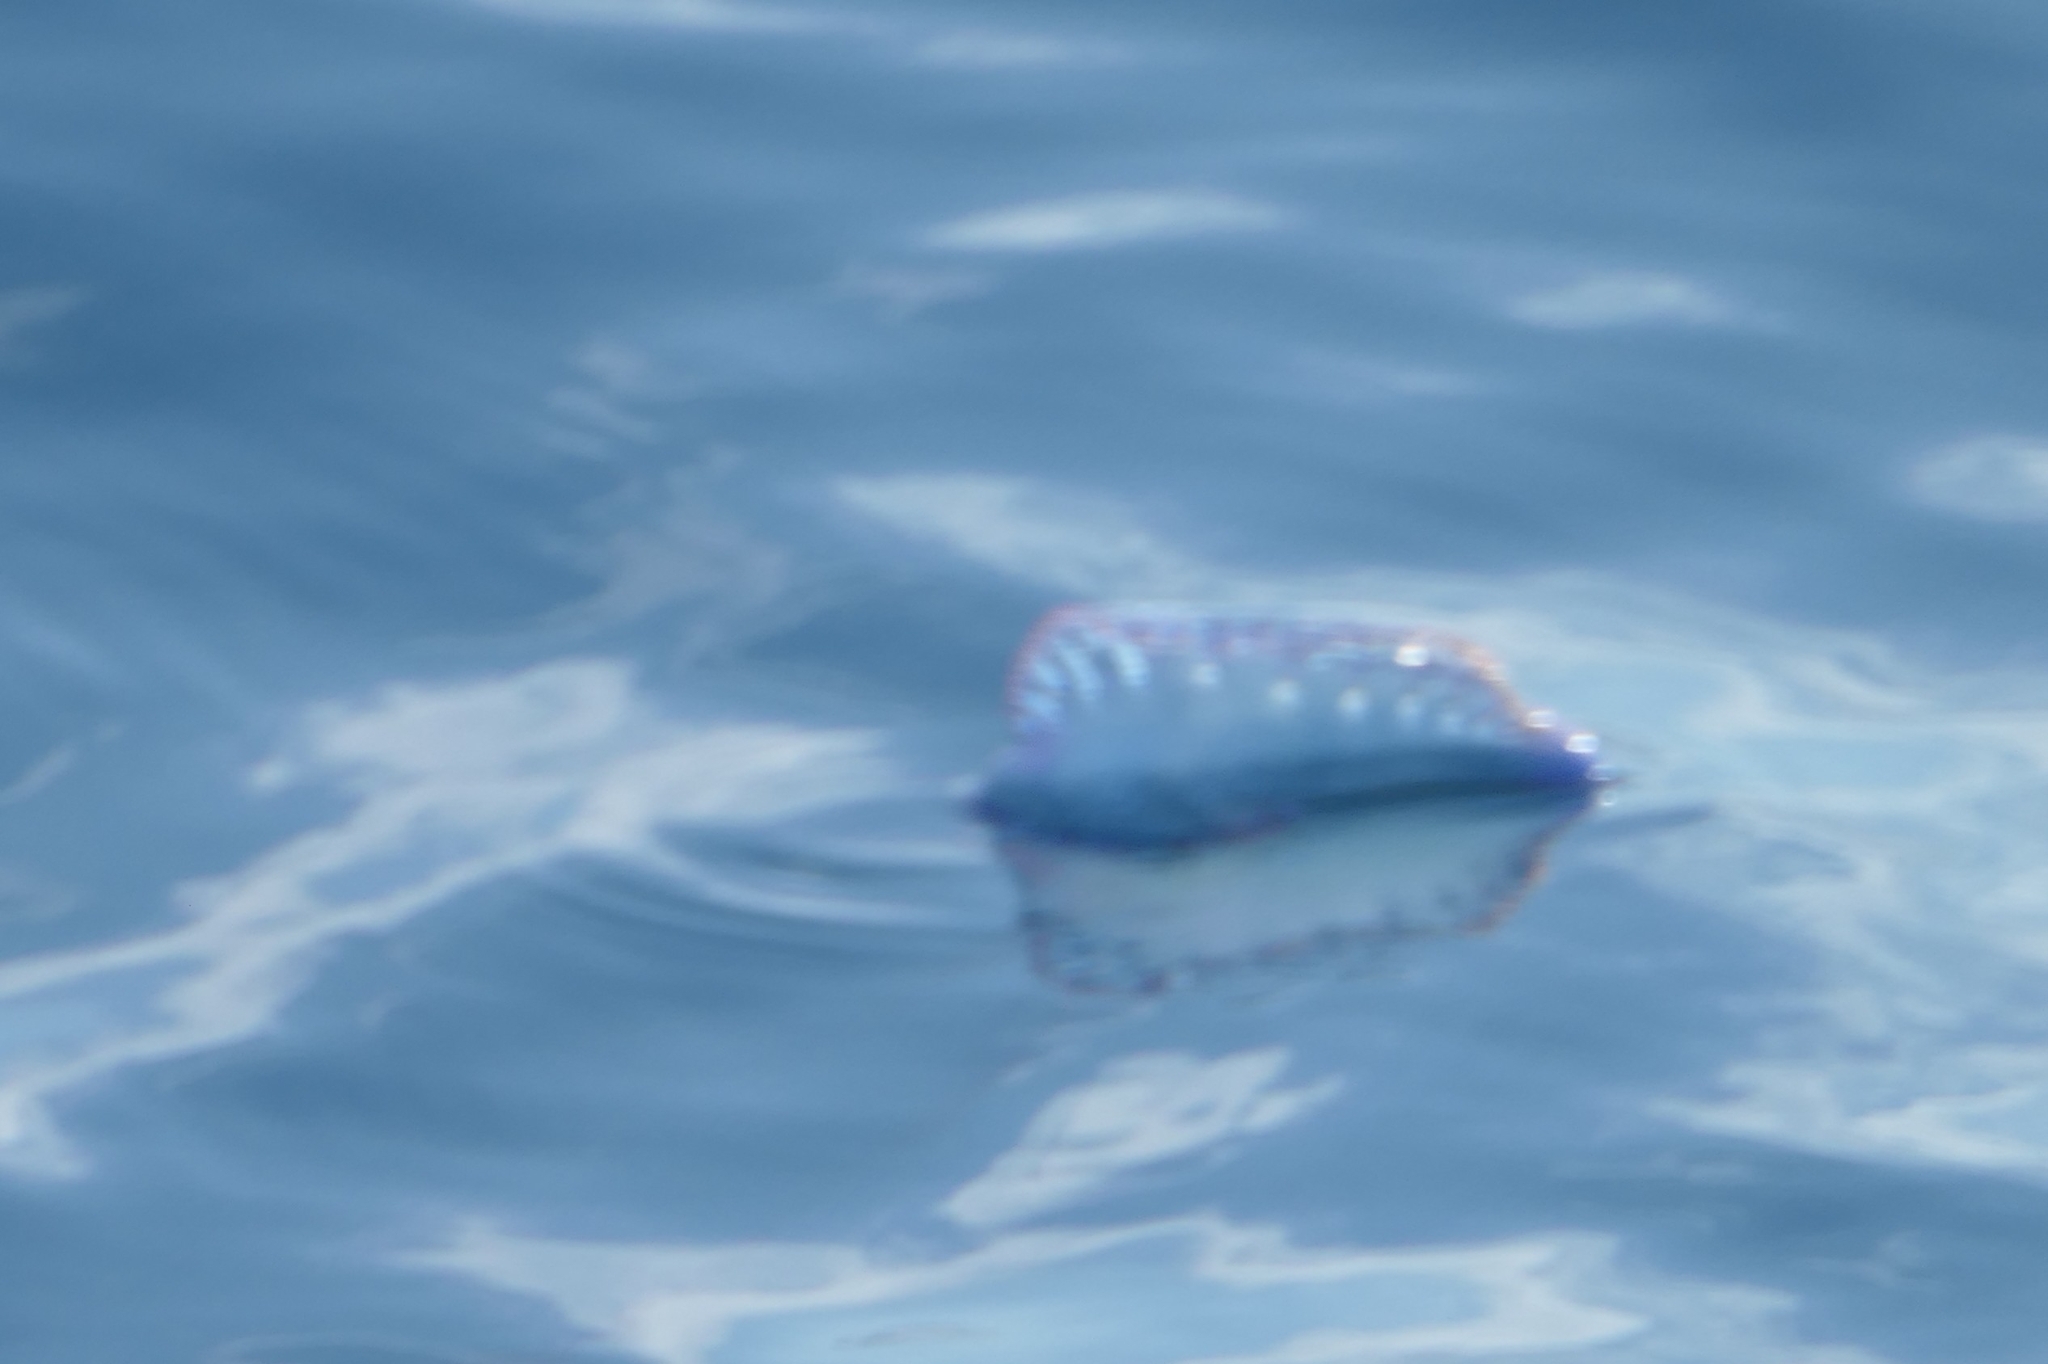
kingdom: Animalia
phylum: Cnidaria
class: Hydrozoa
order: Siphonophorae
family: Physaliidae
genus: Physalia
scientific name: Physalia physalis
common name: Portuguese man-of-war
